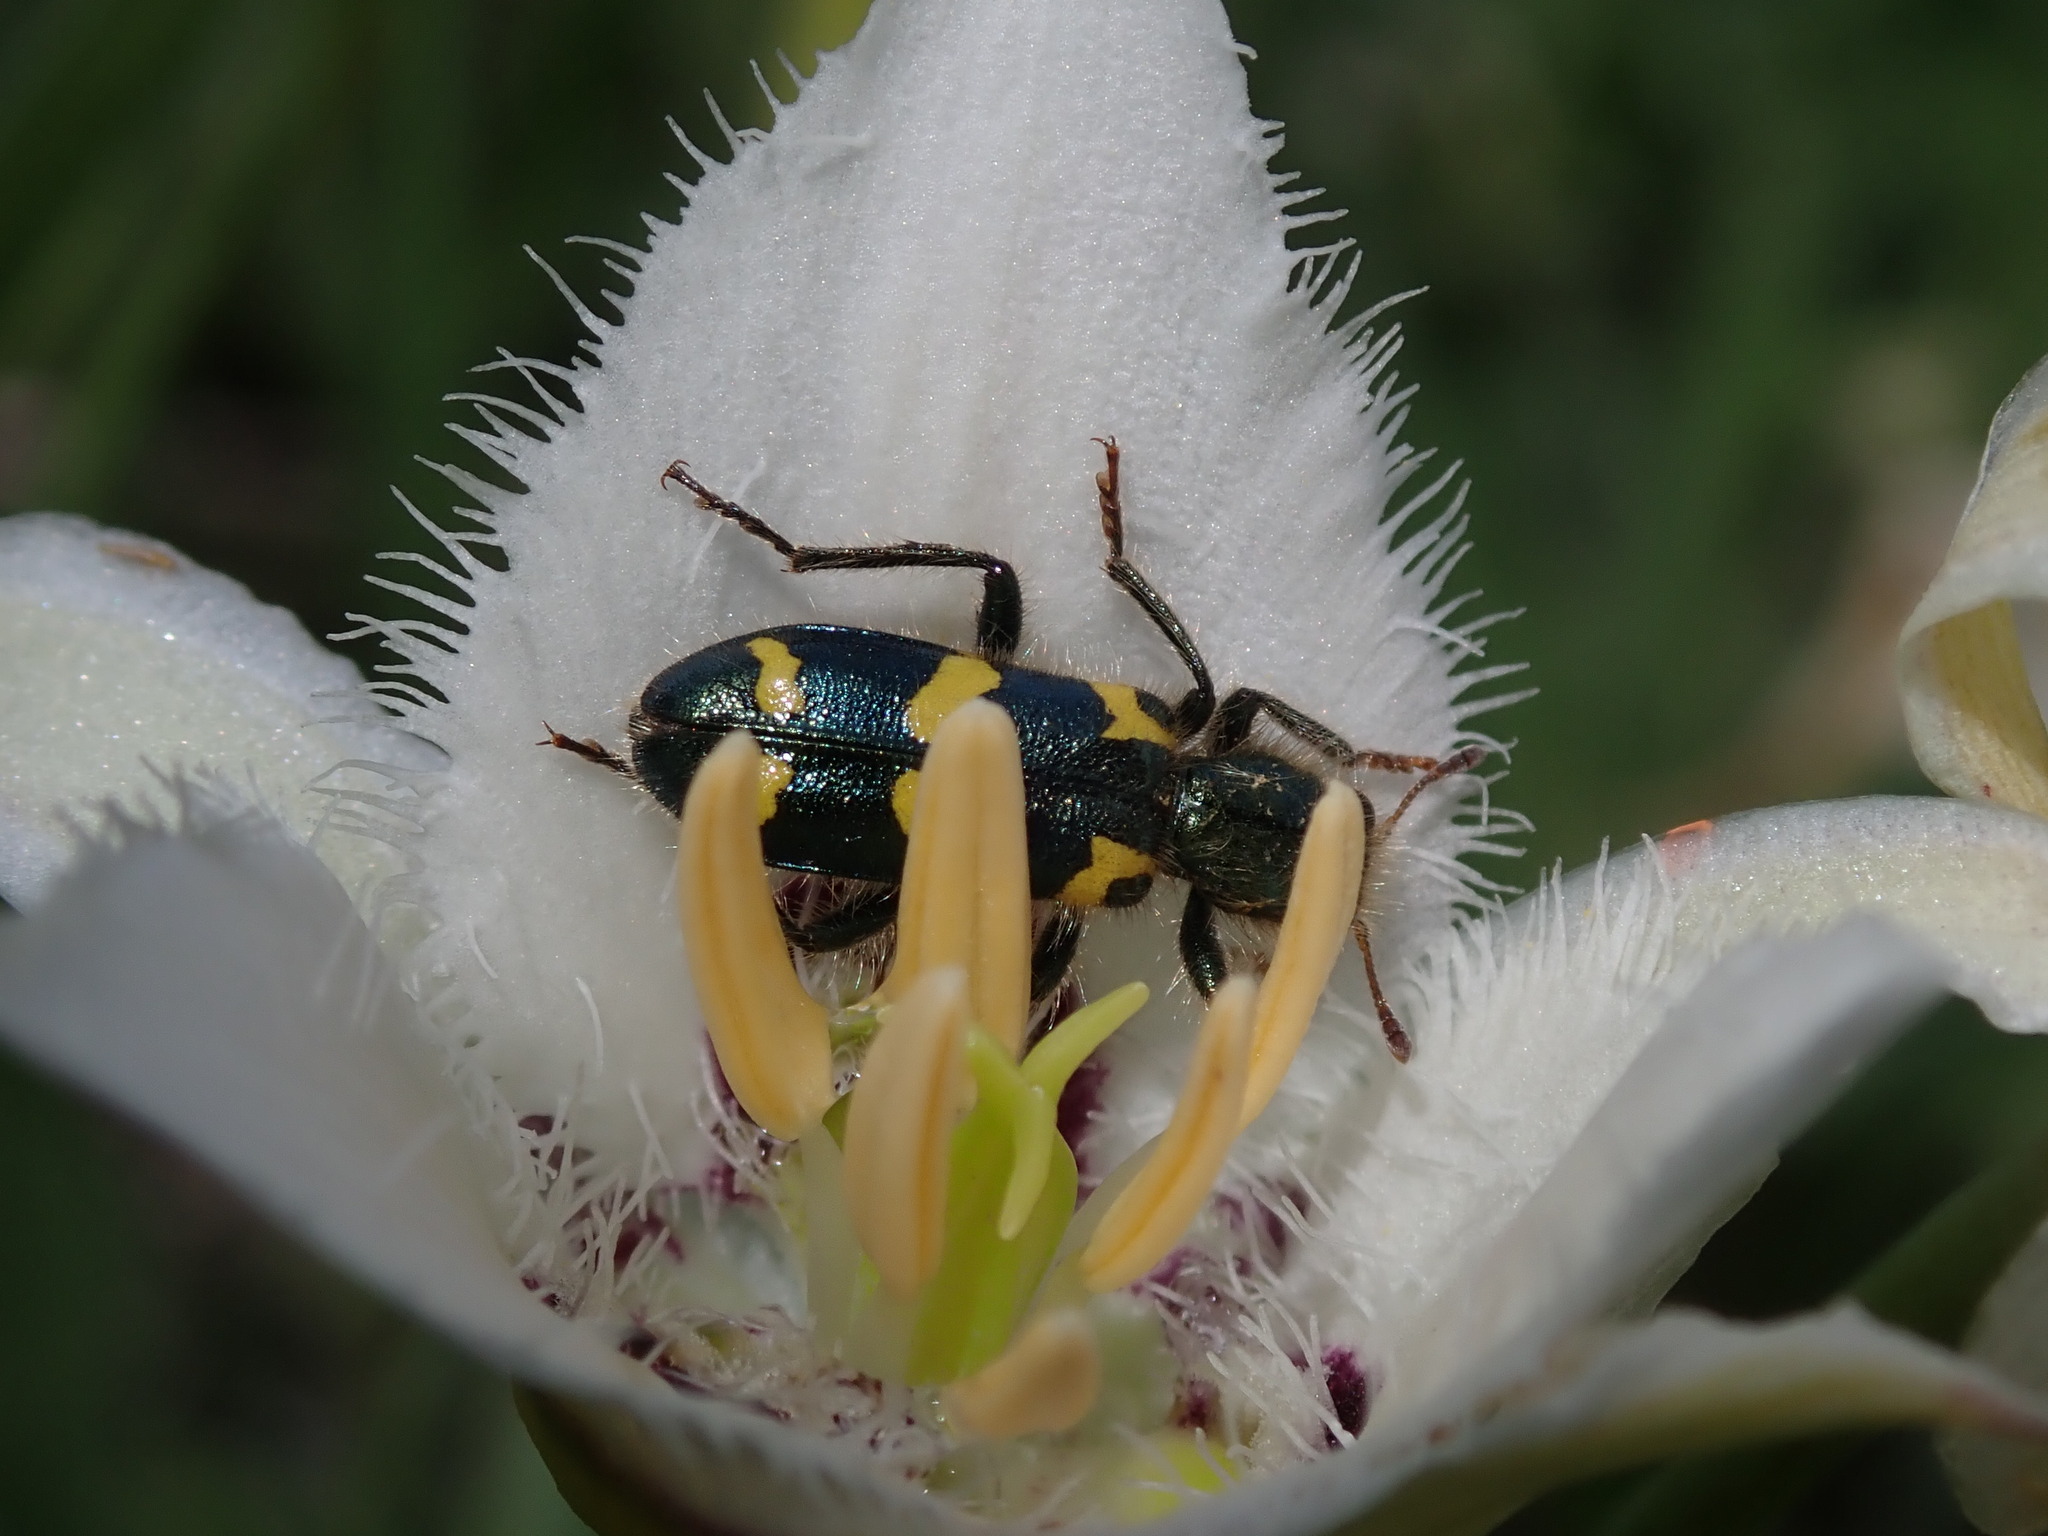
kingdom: Animalia
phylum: Arthropoda
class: Insecta
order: Coleoptera
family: Cleridae
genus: Trichodes
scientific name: Trichodes ornatus
